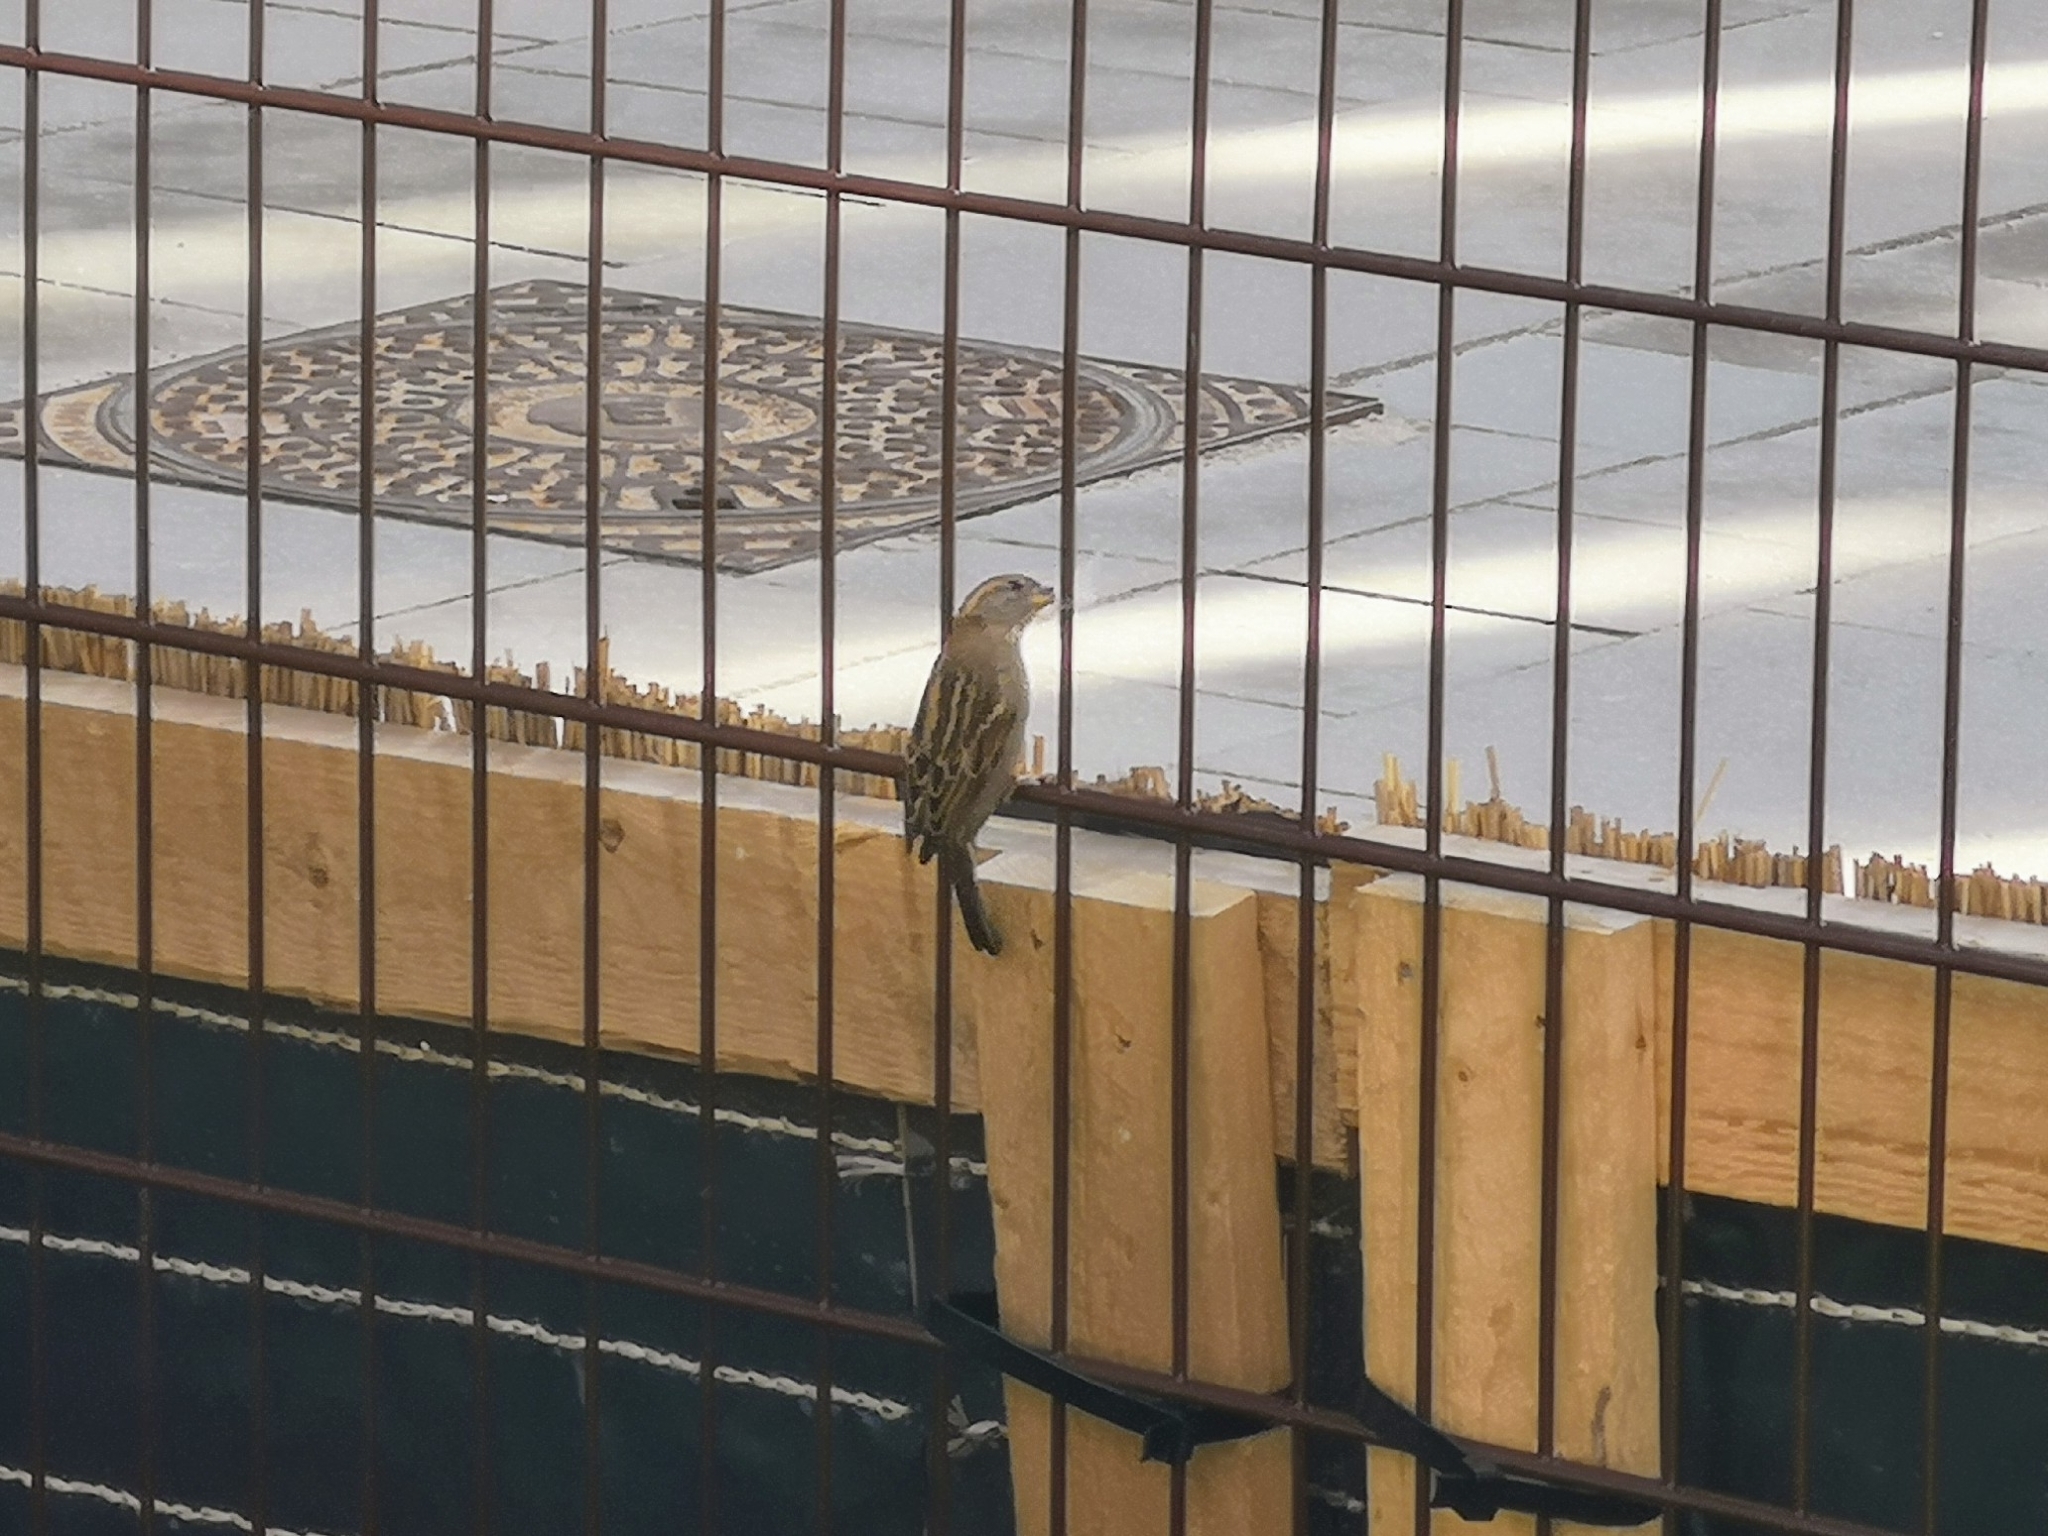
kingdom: Animalia
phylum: Chordata
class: Aves
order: Passeriformes
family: Passeridae
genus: Passer
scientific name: Passer domesticus
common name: House sparrow
